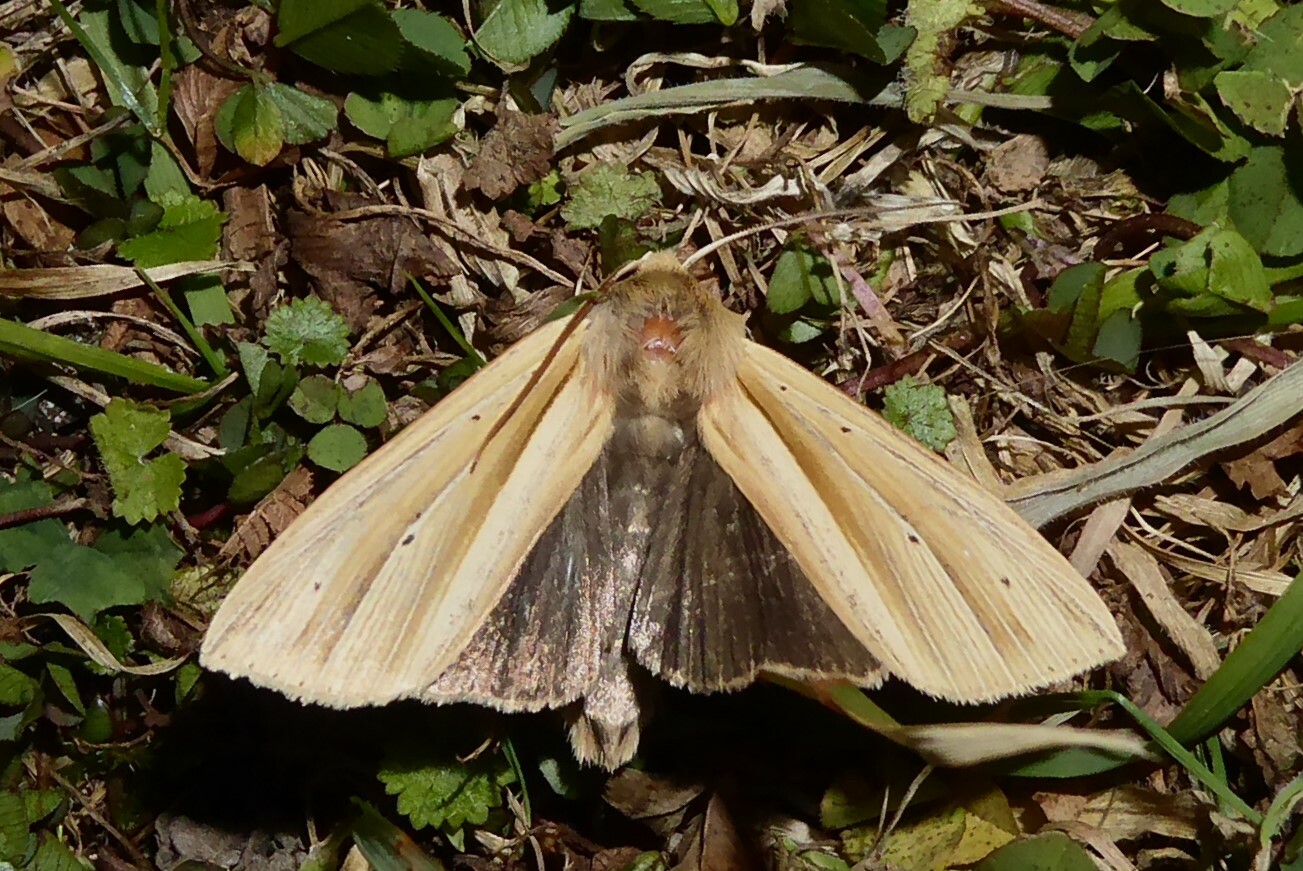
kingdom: Animalia
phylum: Arthropoda
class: Insecta
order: Lepidoptera
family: Noctuidae
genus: Ichneutica
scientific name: Ichneutica sulcana
